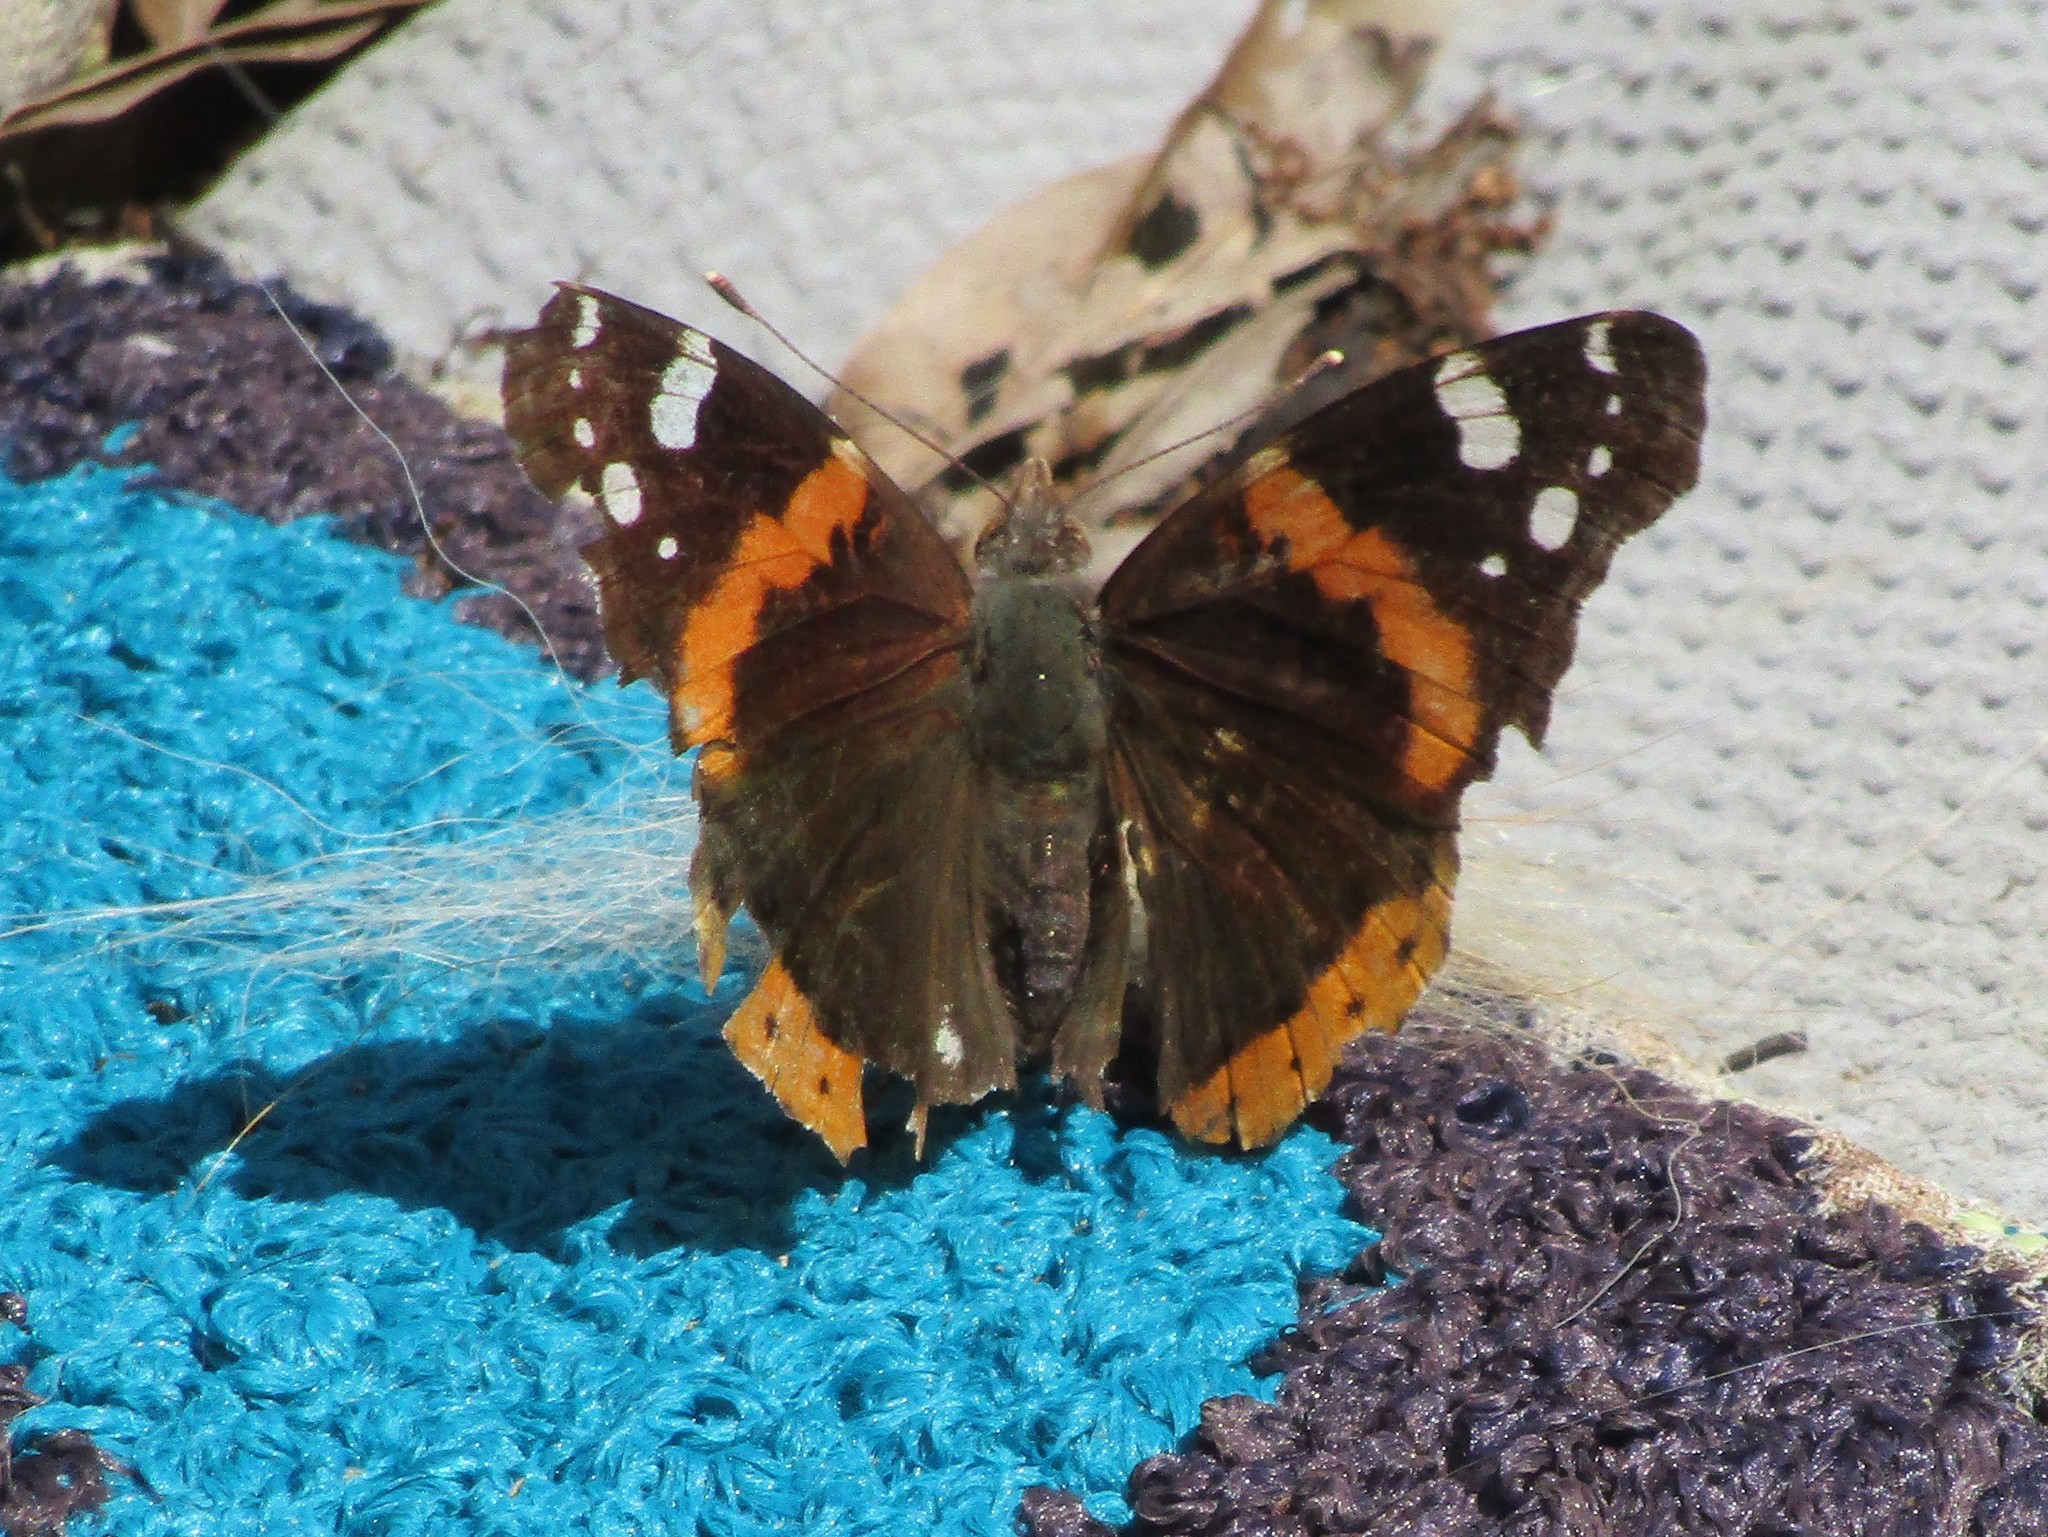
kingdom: Animalia
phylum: Arthropoda
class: Insecta
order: Lepidoptera
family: Nymphalidae
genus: Vanessa
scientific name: Vanessa atalanta
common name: Red admiral
